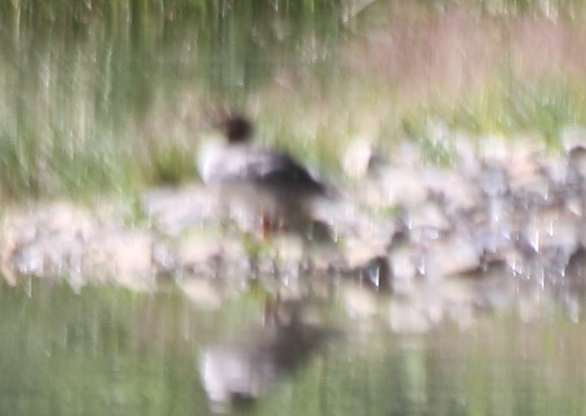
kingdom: Animalia
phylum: Chordata
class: Aves
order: Anseriformes
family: Anatidae
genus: Mergus
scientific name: Mergus merganser
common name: Common merganser
